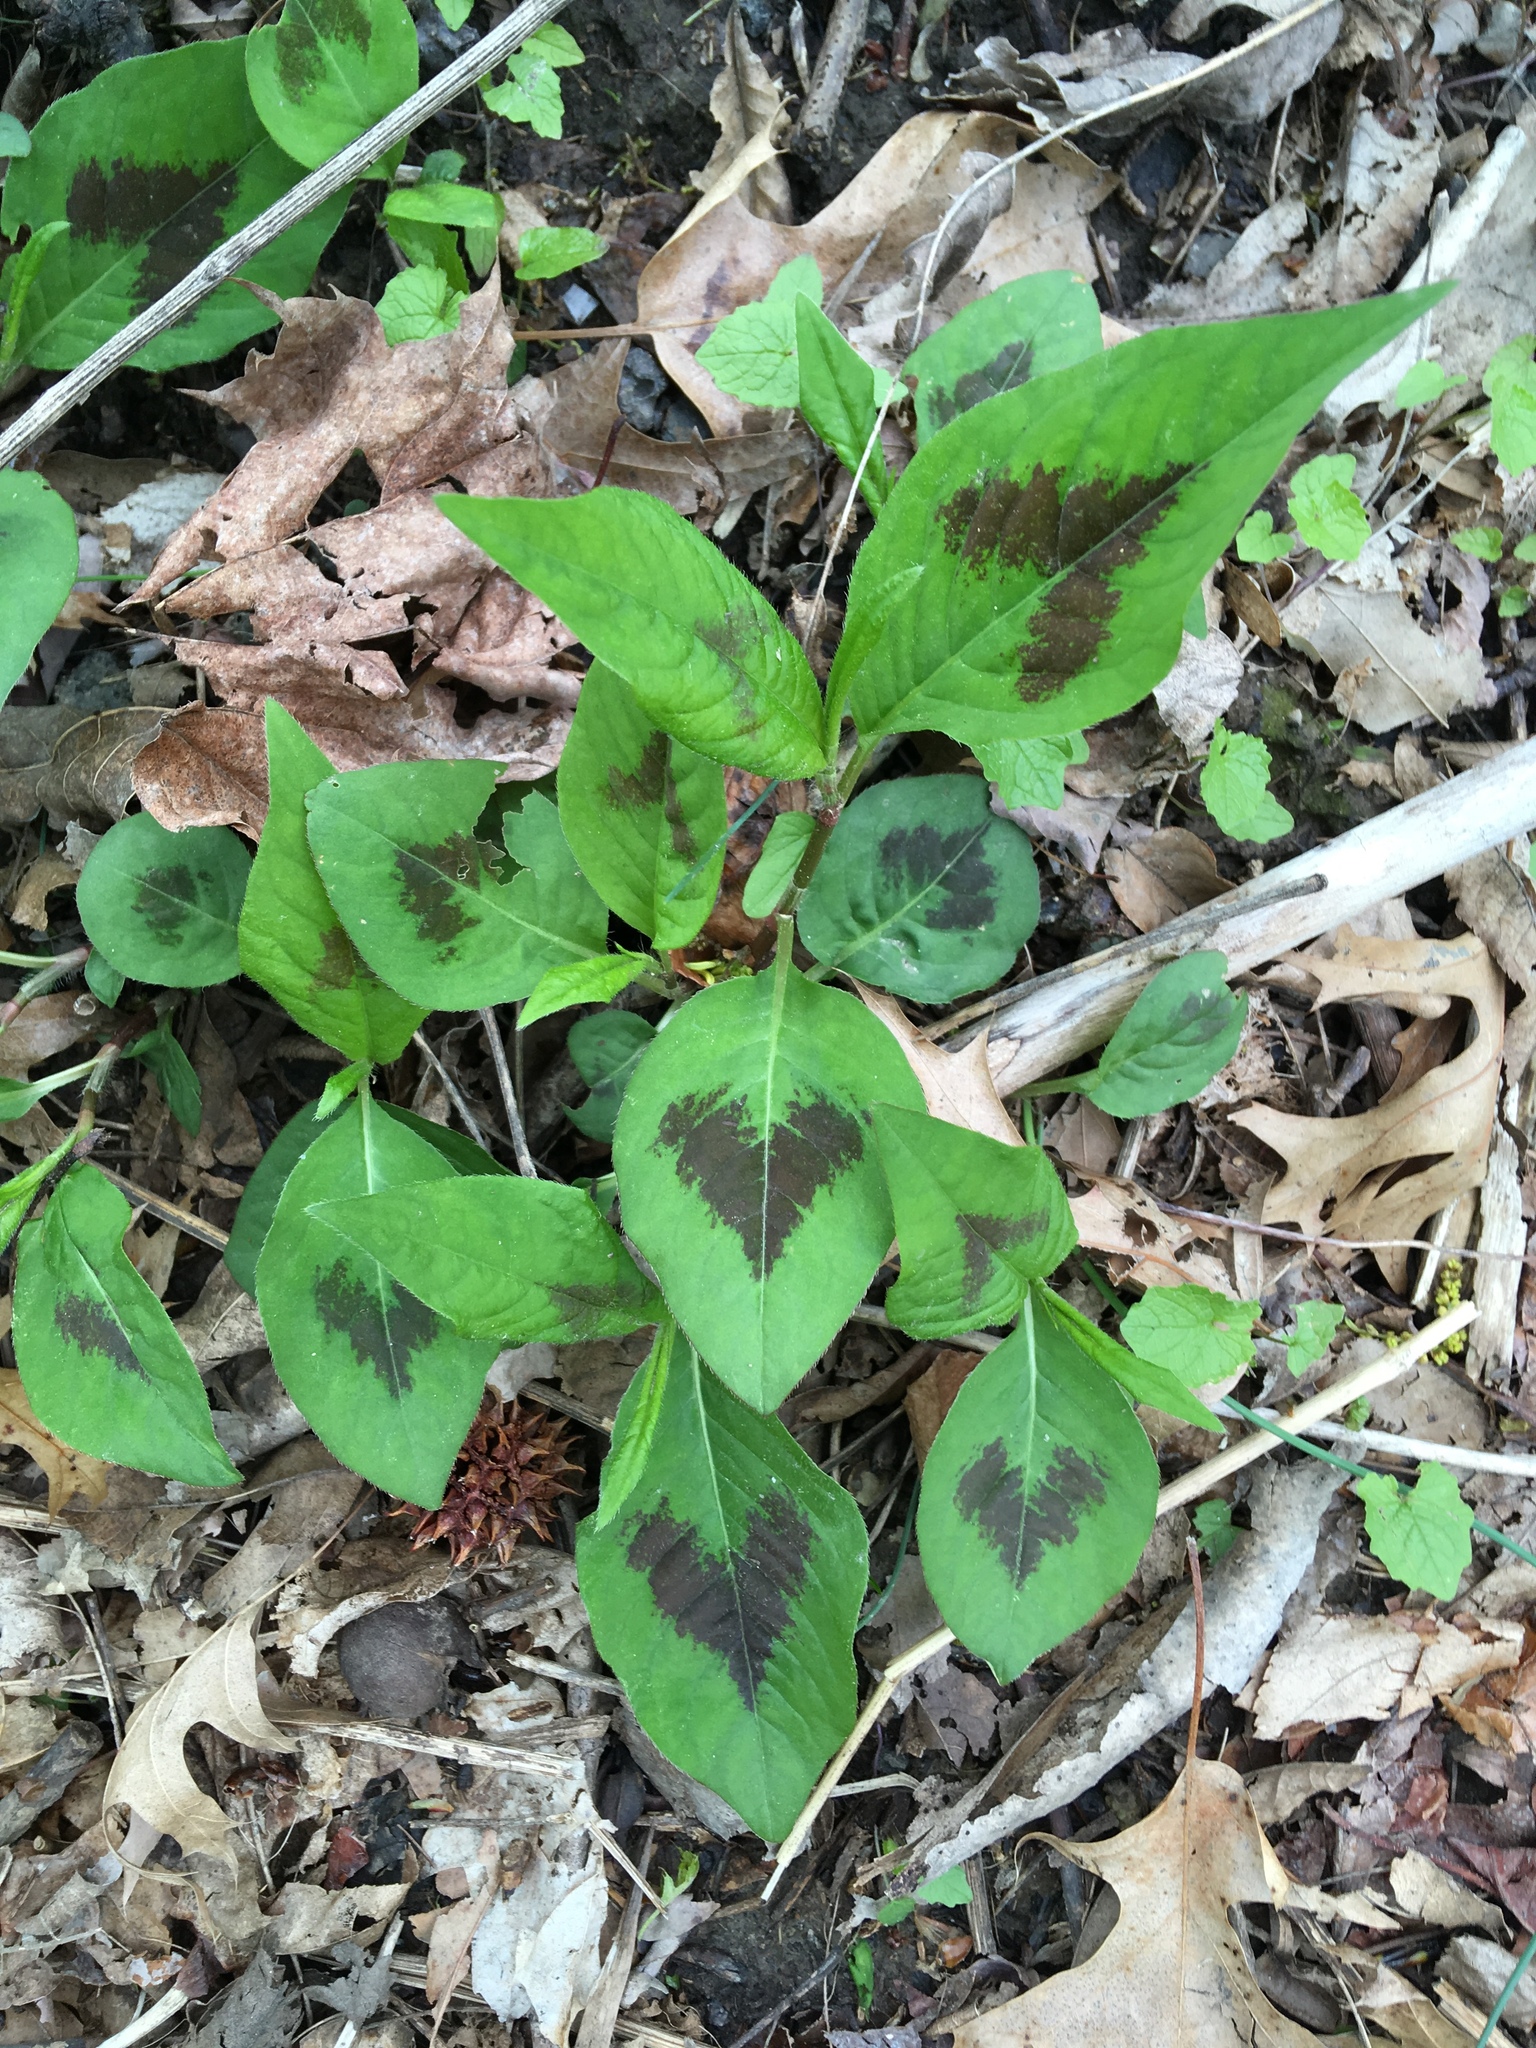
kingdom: Plantae
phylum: Tracheophyta
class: Magnoliopsida
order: Caryophyllales
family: Polygonaceae
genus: Persicaria
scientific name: Persicaria virginiana
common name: Jumpseed
